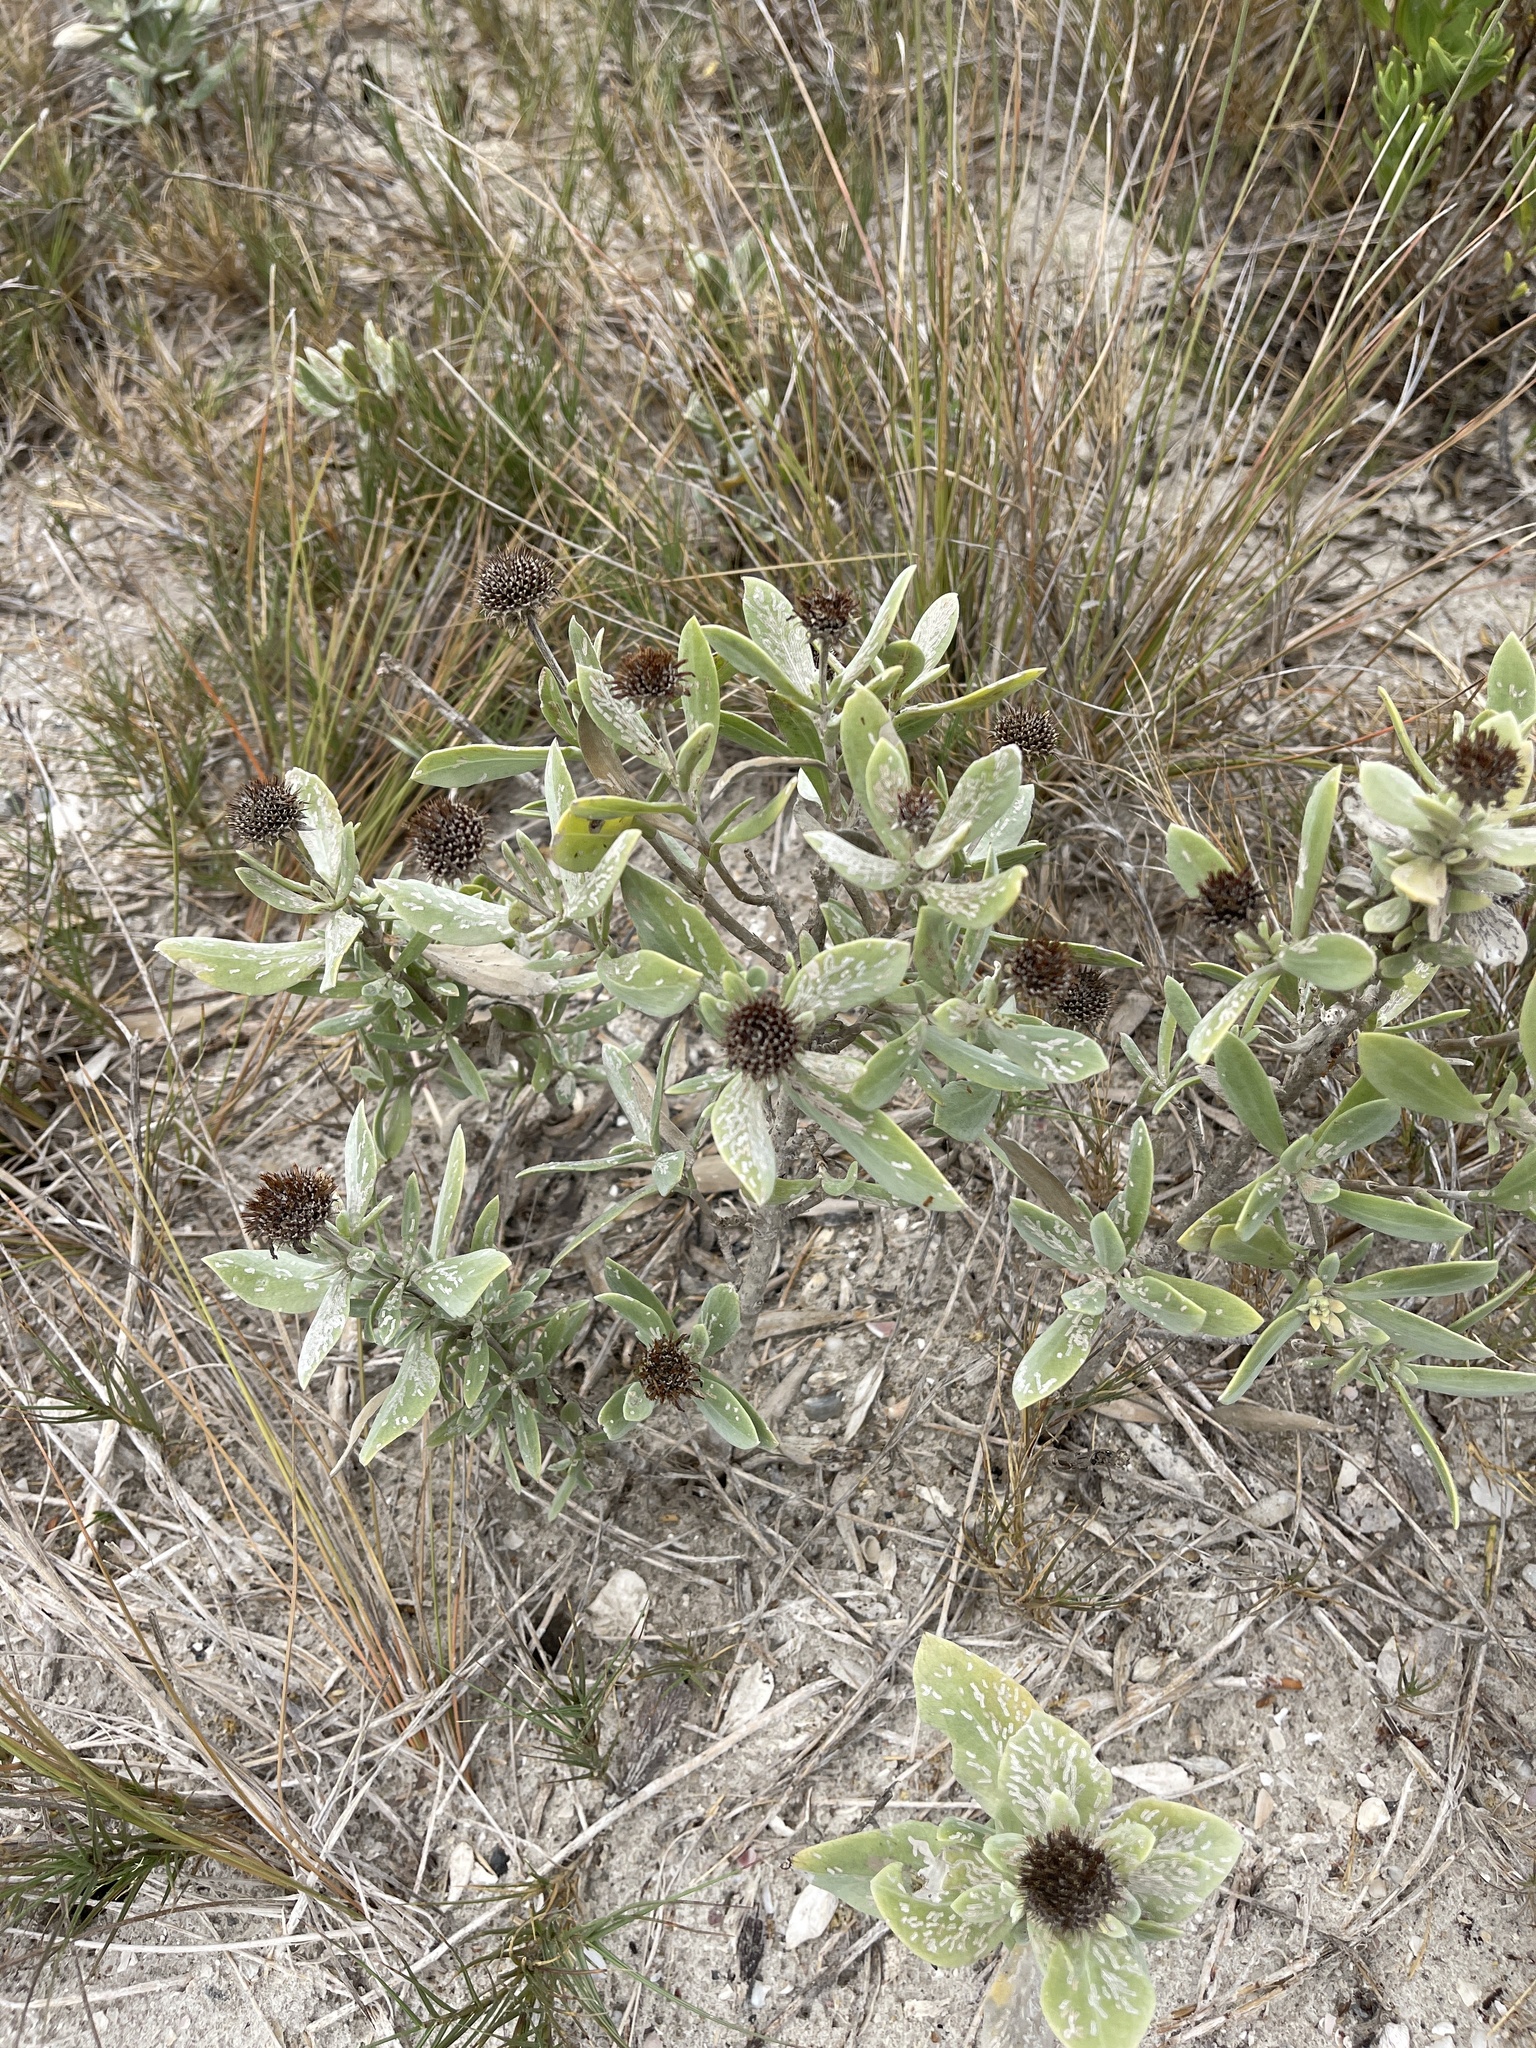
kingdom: Plantae
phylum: Tracheophyta
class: Magnoliopsida
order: Asterales
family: Asteraceae
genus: Borrichia
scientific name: Borrichia frutescens
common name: Sea oxeye
